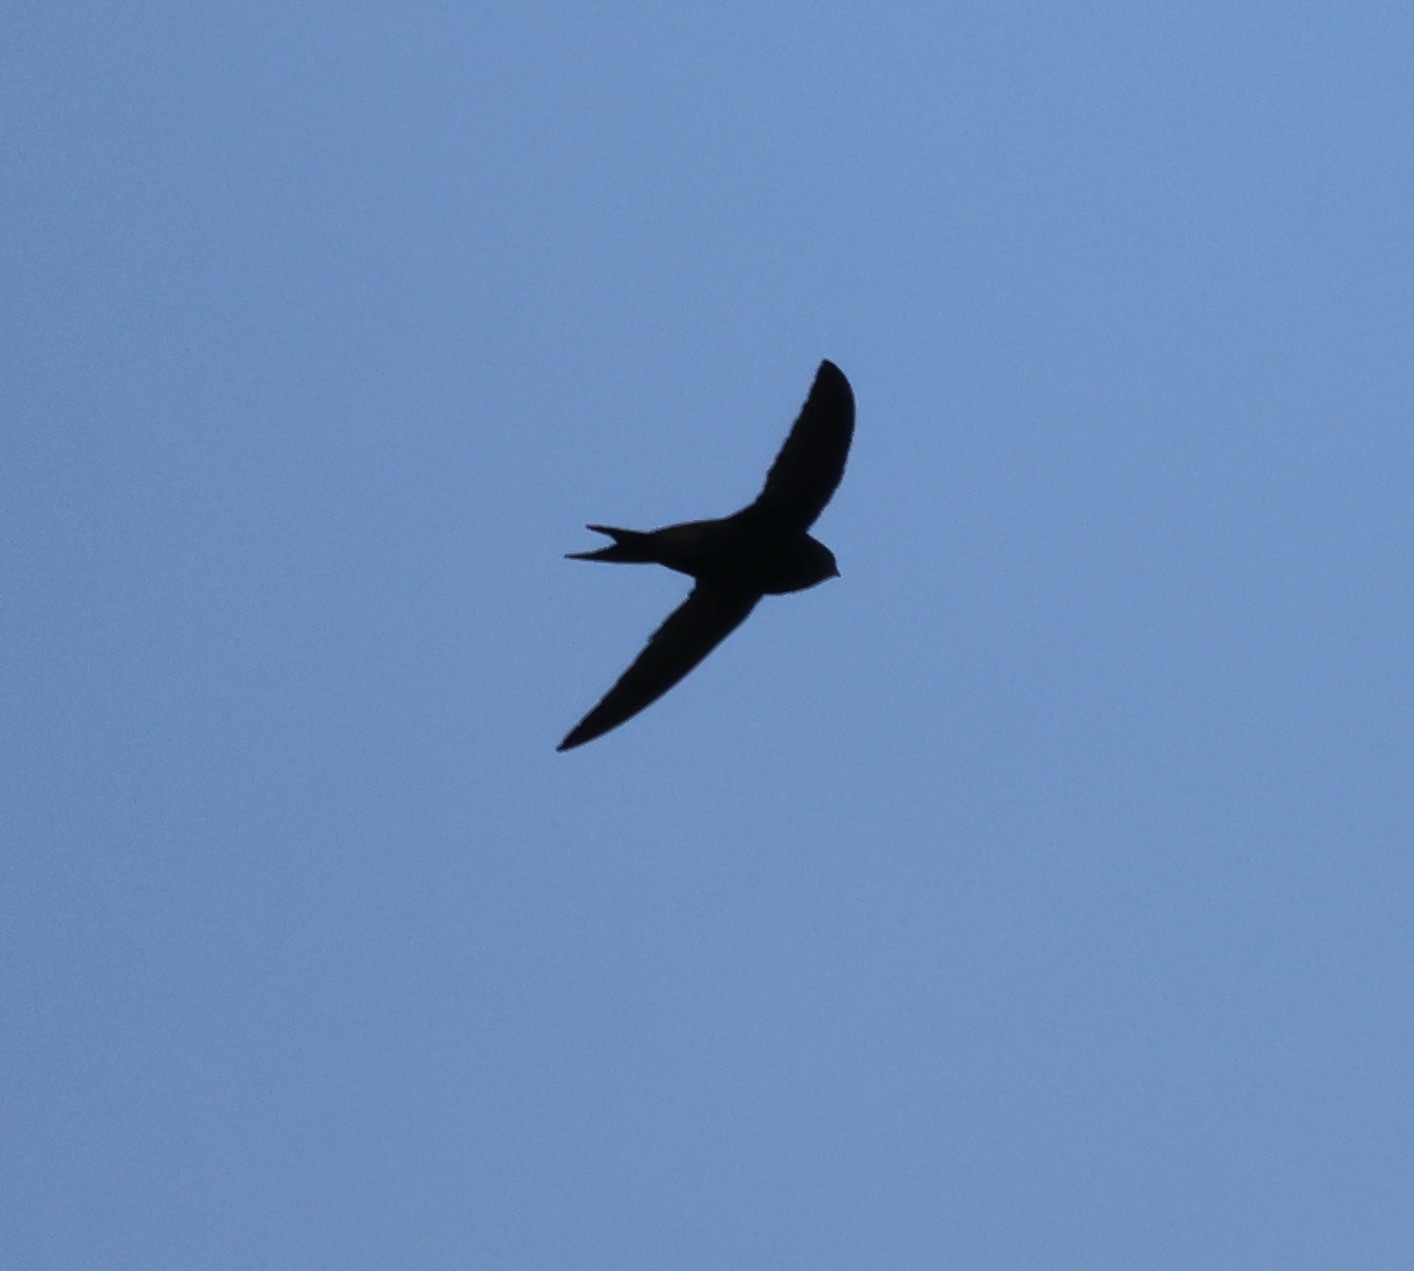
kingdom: Animalia
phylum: Chordata
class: Aves
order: Apodiformes
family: Apodidae
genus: Apus
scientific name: Apus apus
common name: Common swift
